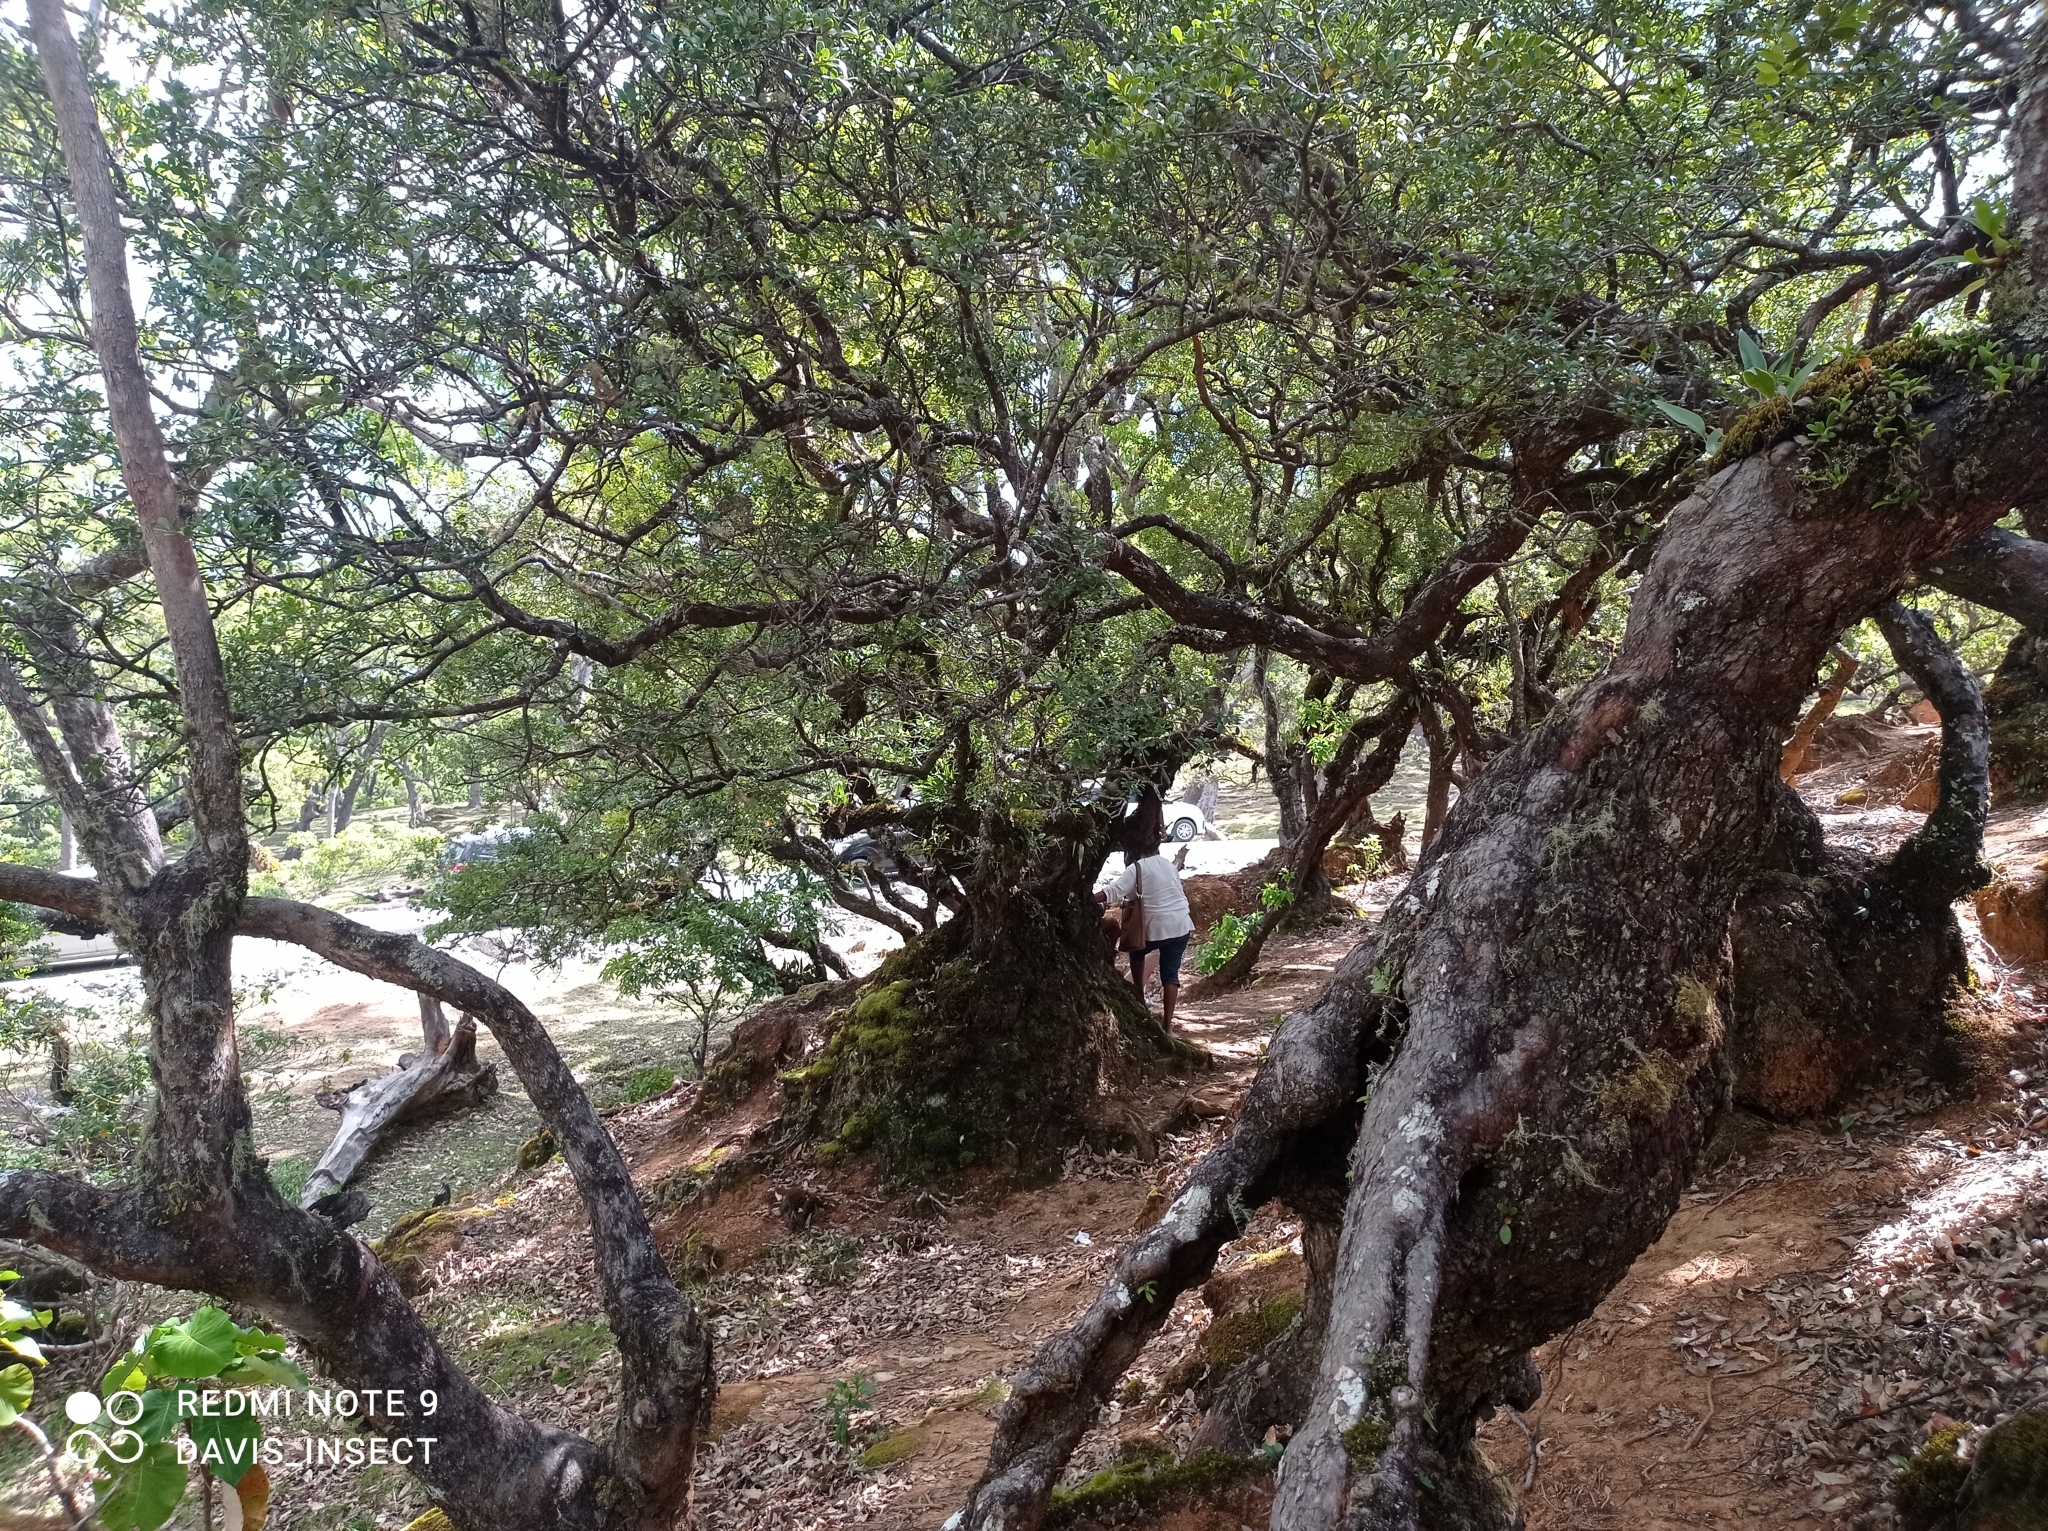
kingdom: Plantae
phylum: Tracheophyta
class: Magnoliopsida
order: Myrtales
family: Myrtaceae
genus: Eucalyptus
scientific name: Eucalyptus urophylla
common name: Timor mountain gum
